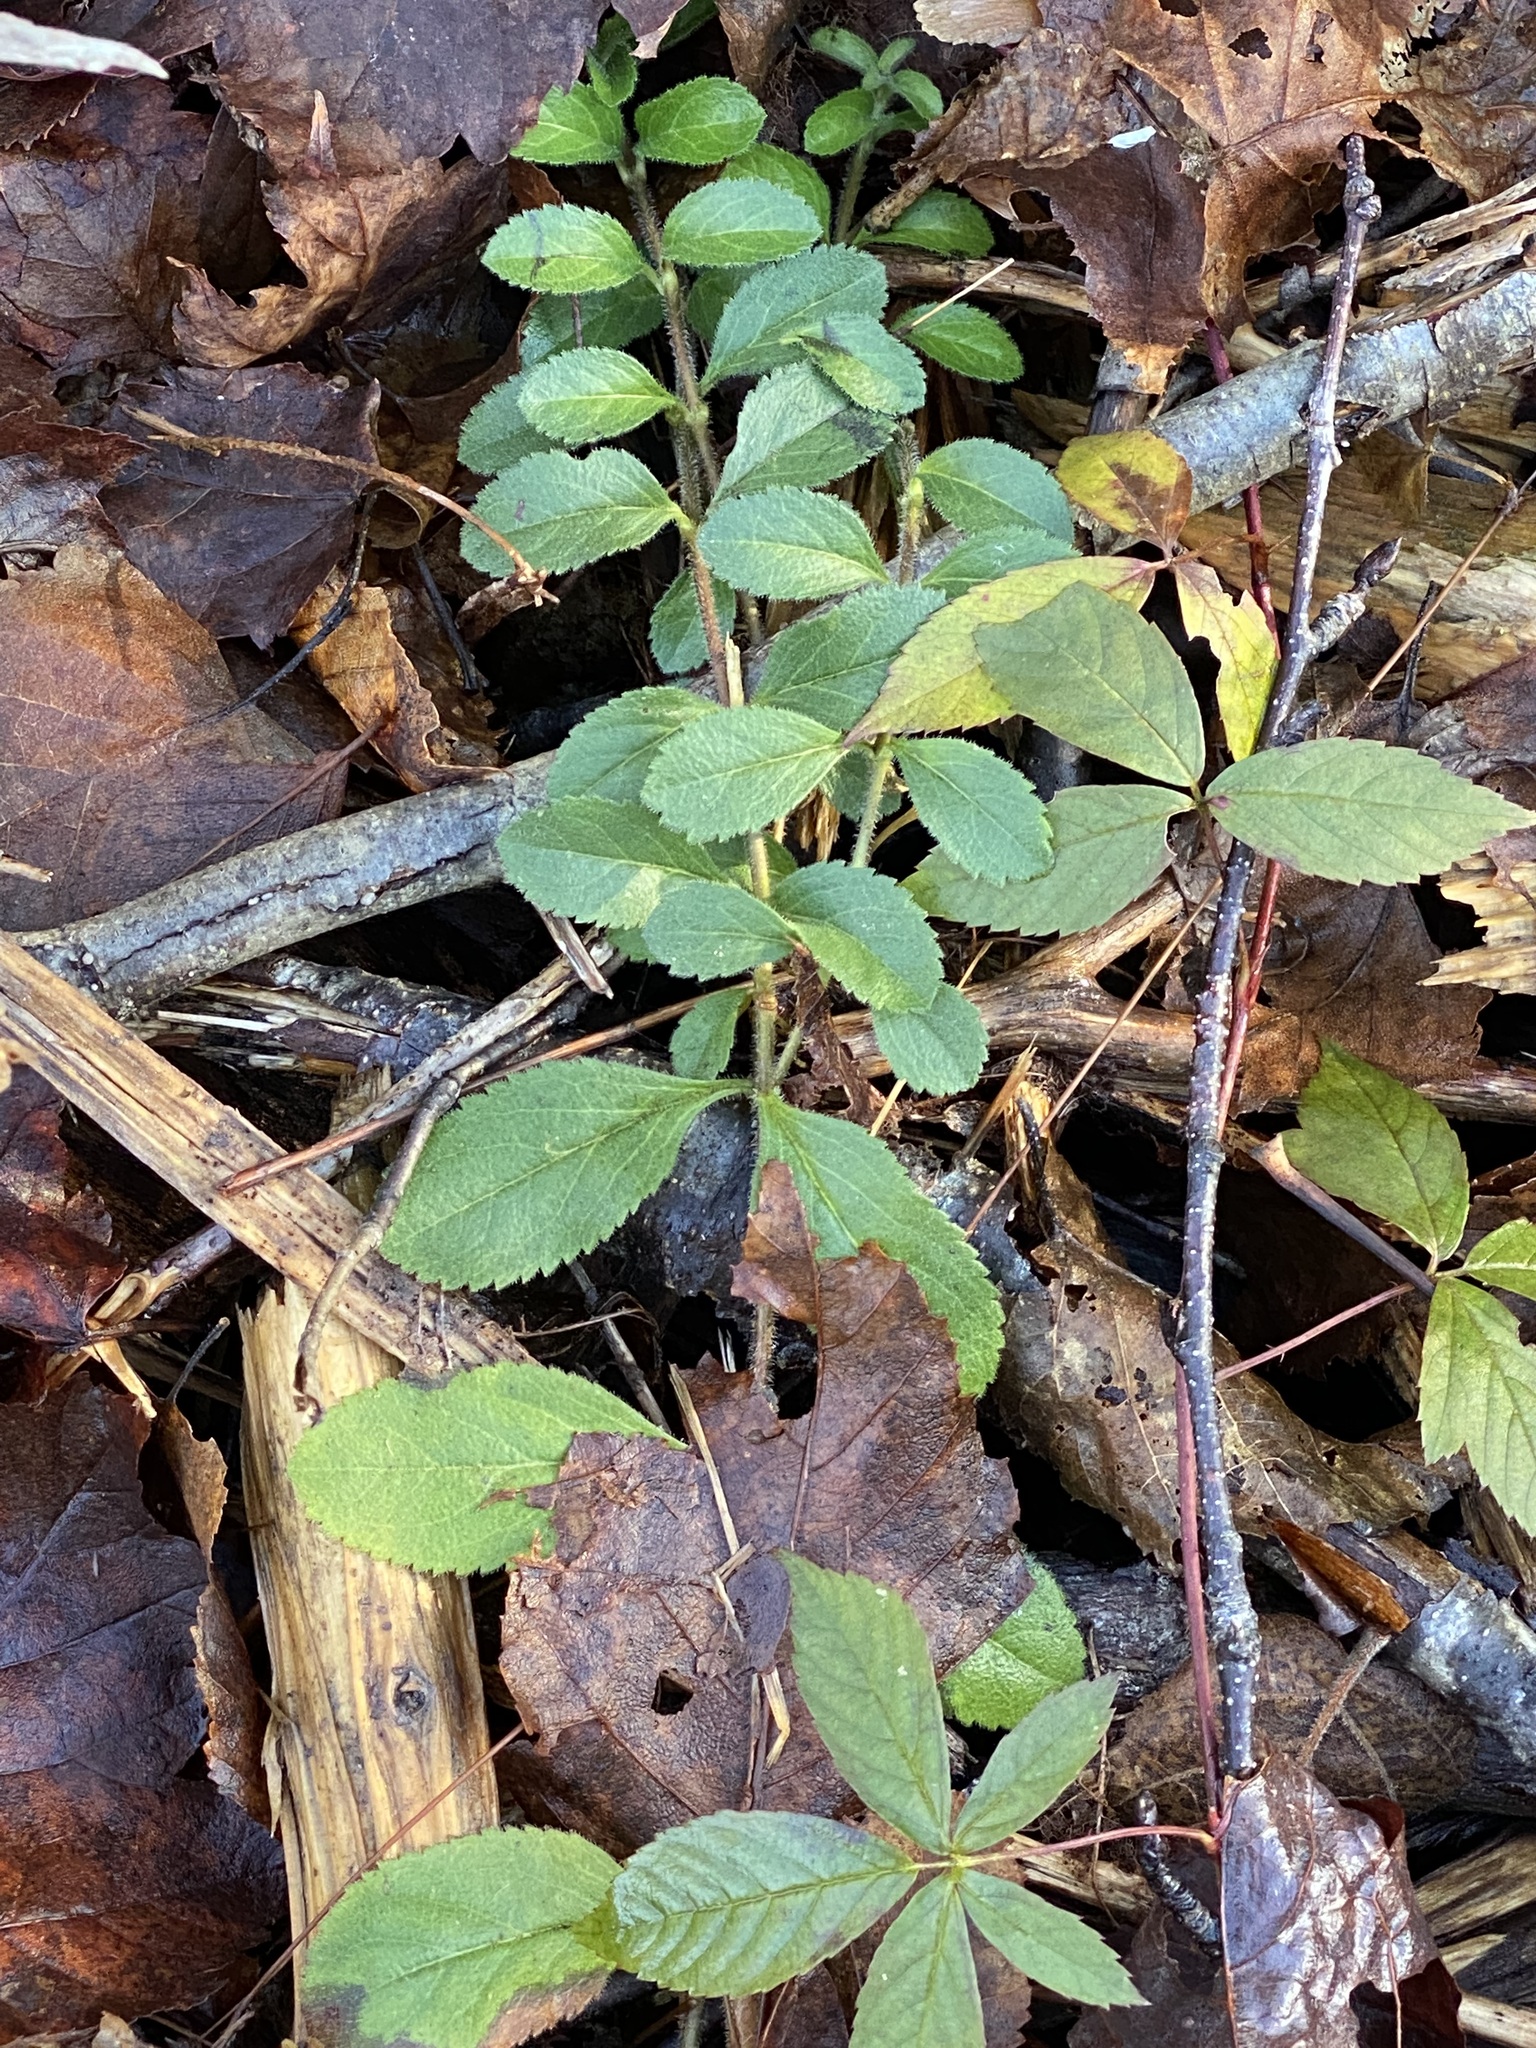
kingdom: Plantae
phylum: Tracheophyta
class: Magnoliopsida
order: Lamiales
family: Plantaginaceae
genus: Veronica
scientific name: Veronica officinalis
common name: Common speedwell
